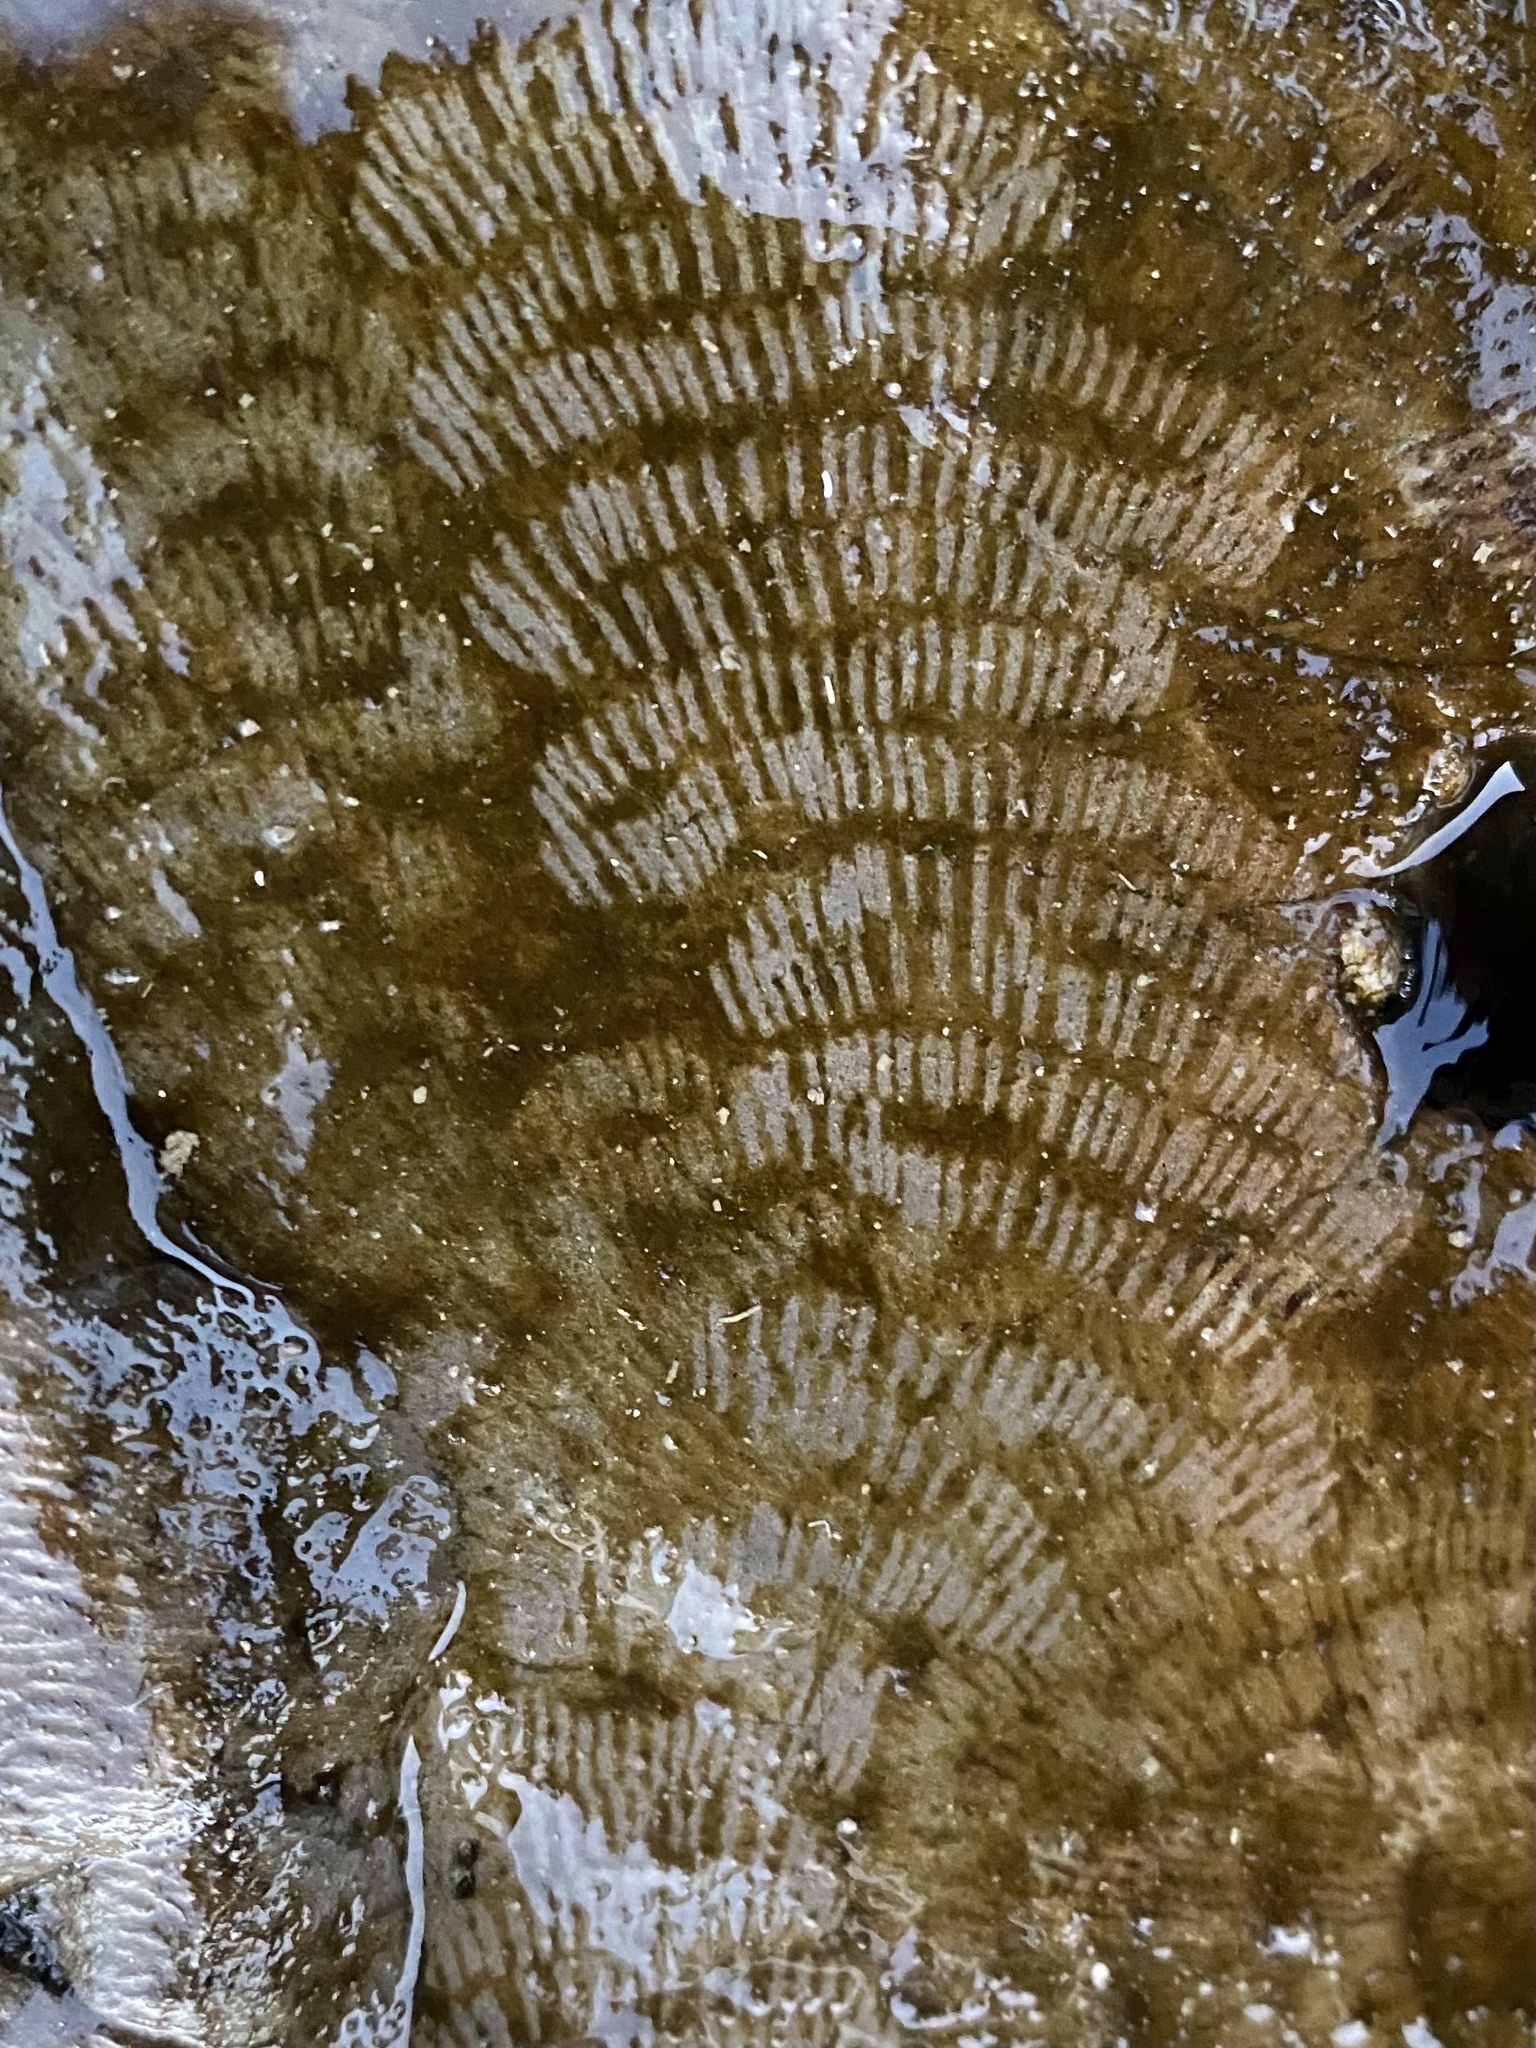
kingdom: Animalia
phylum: Mollusca
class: Gastropoda
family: Lottiidae
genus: Lottia
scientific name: Lottia gigantea
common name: Owl limpet
